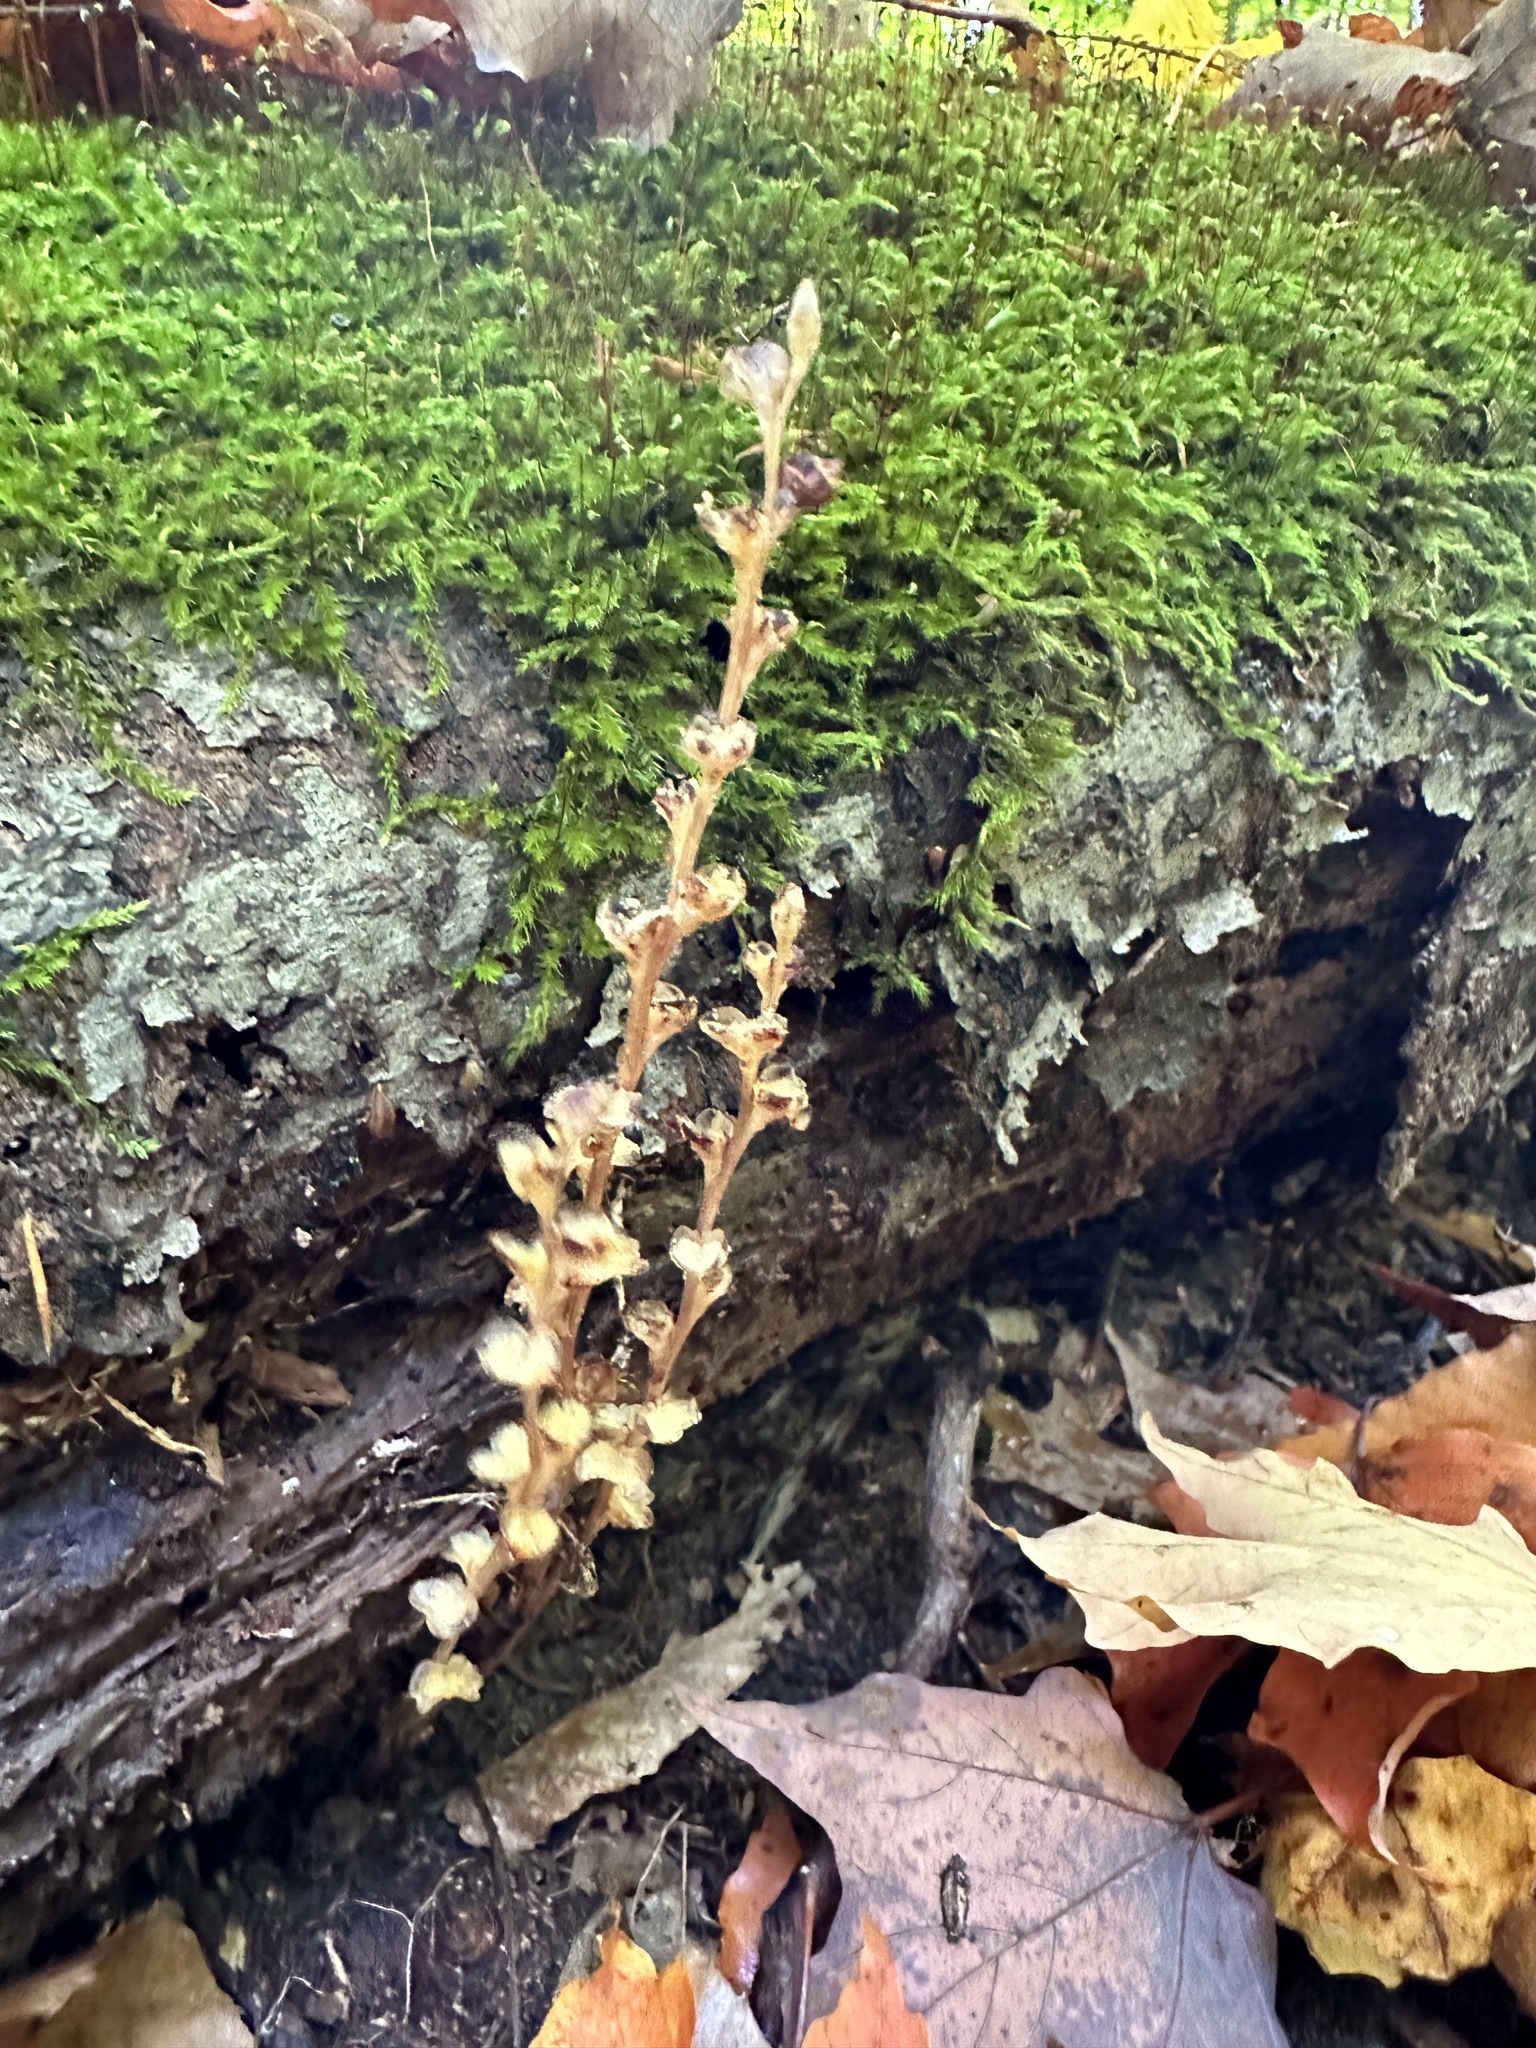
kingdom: Plantae
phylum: Tracheophyta
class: Magnoliopsida
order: Lamiales
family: Orobanchaceae
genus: Epifagus
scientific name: Epifagus virginiana
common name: Beechdrops
